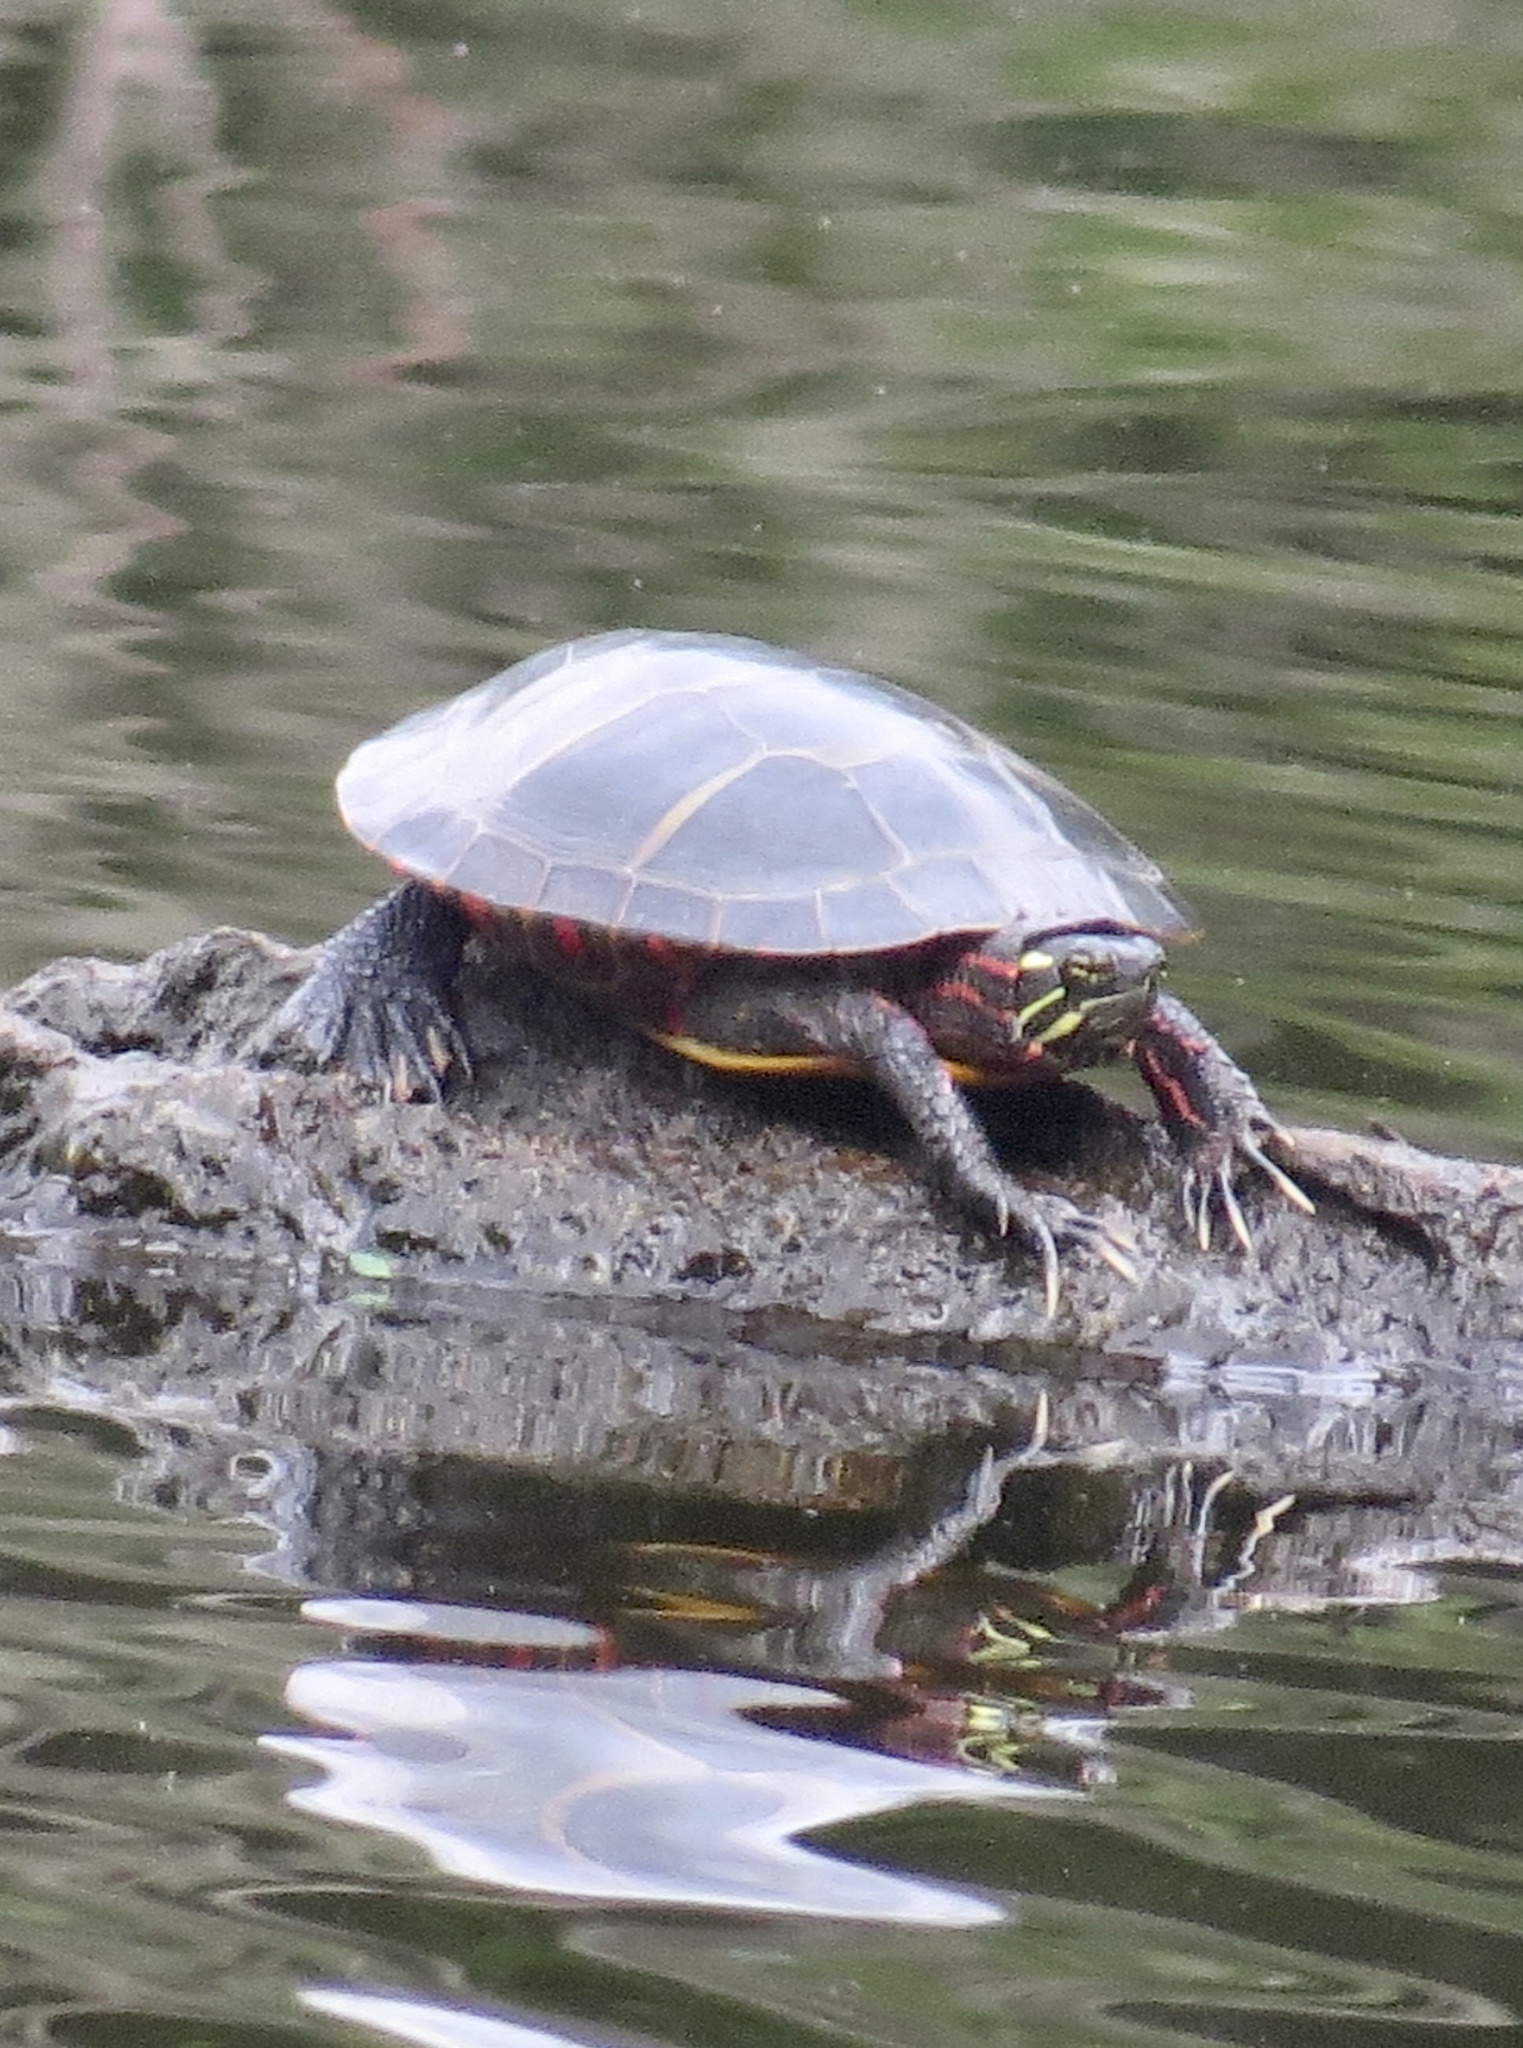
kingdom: Animalia
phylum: Chordata
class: Testudines
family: Emydidae
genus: Chrysemys
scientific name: Chrysemys picta
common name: Painted turtle
